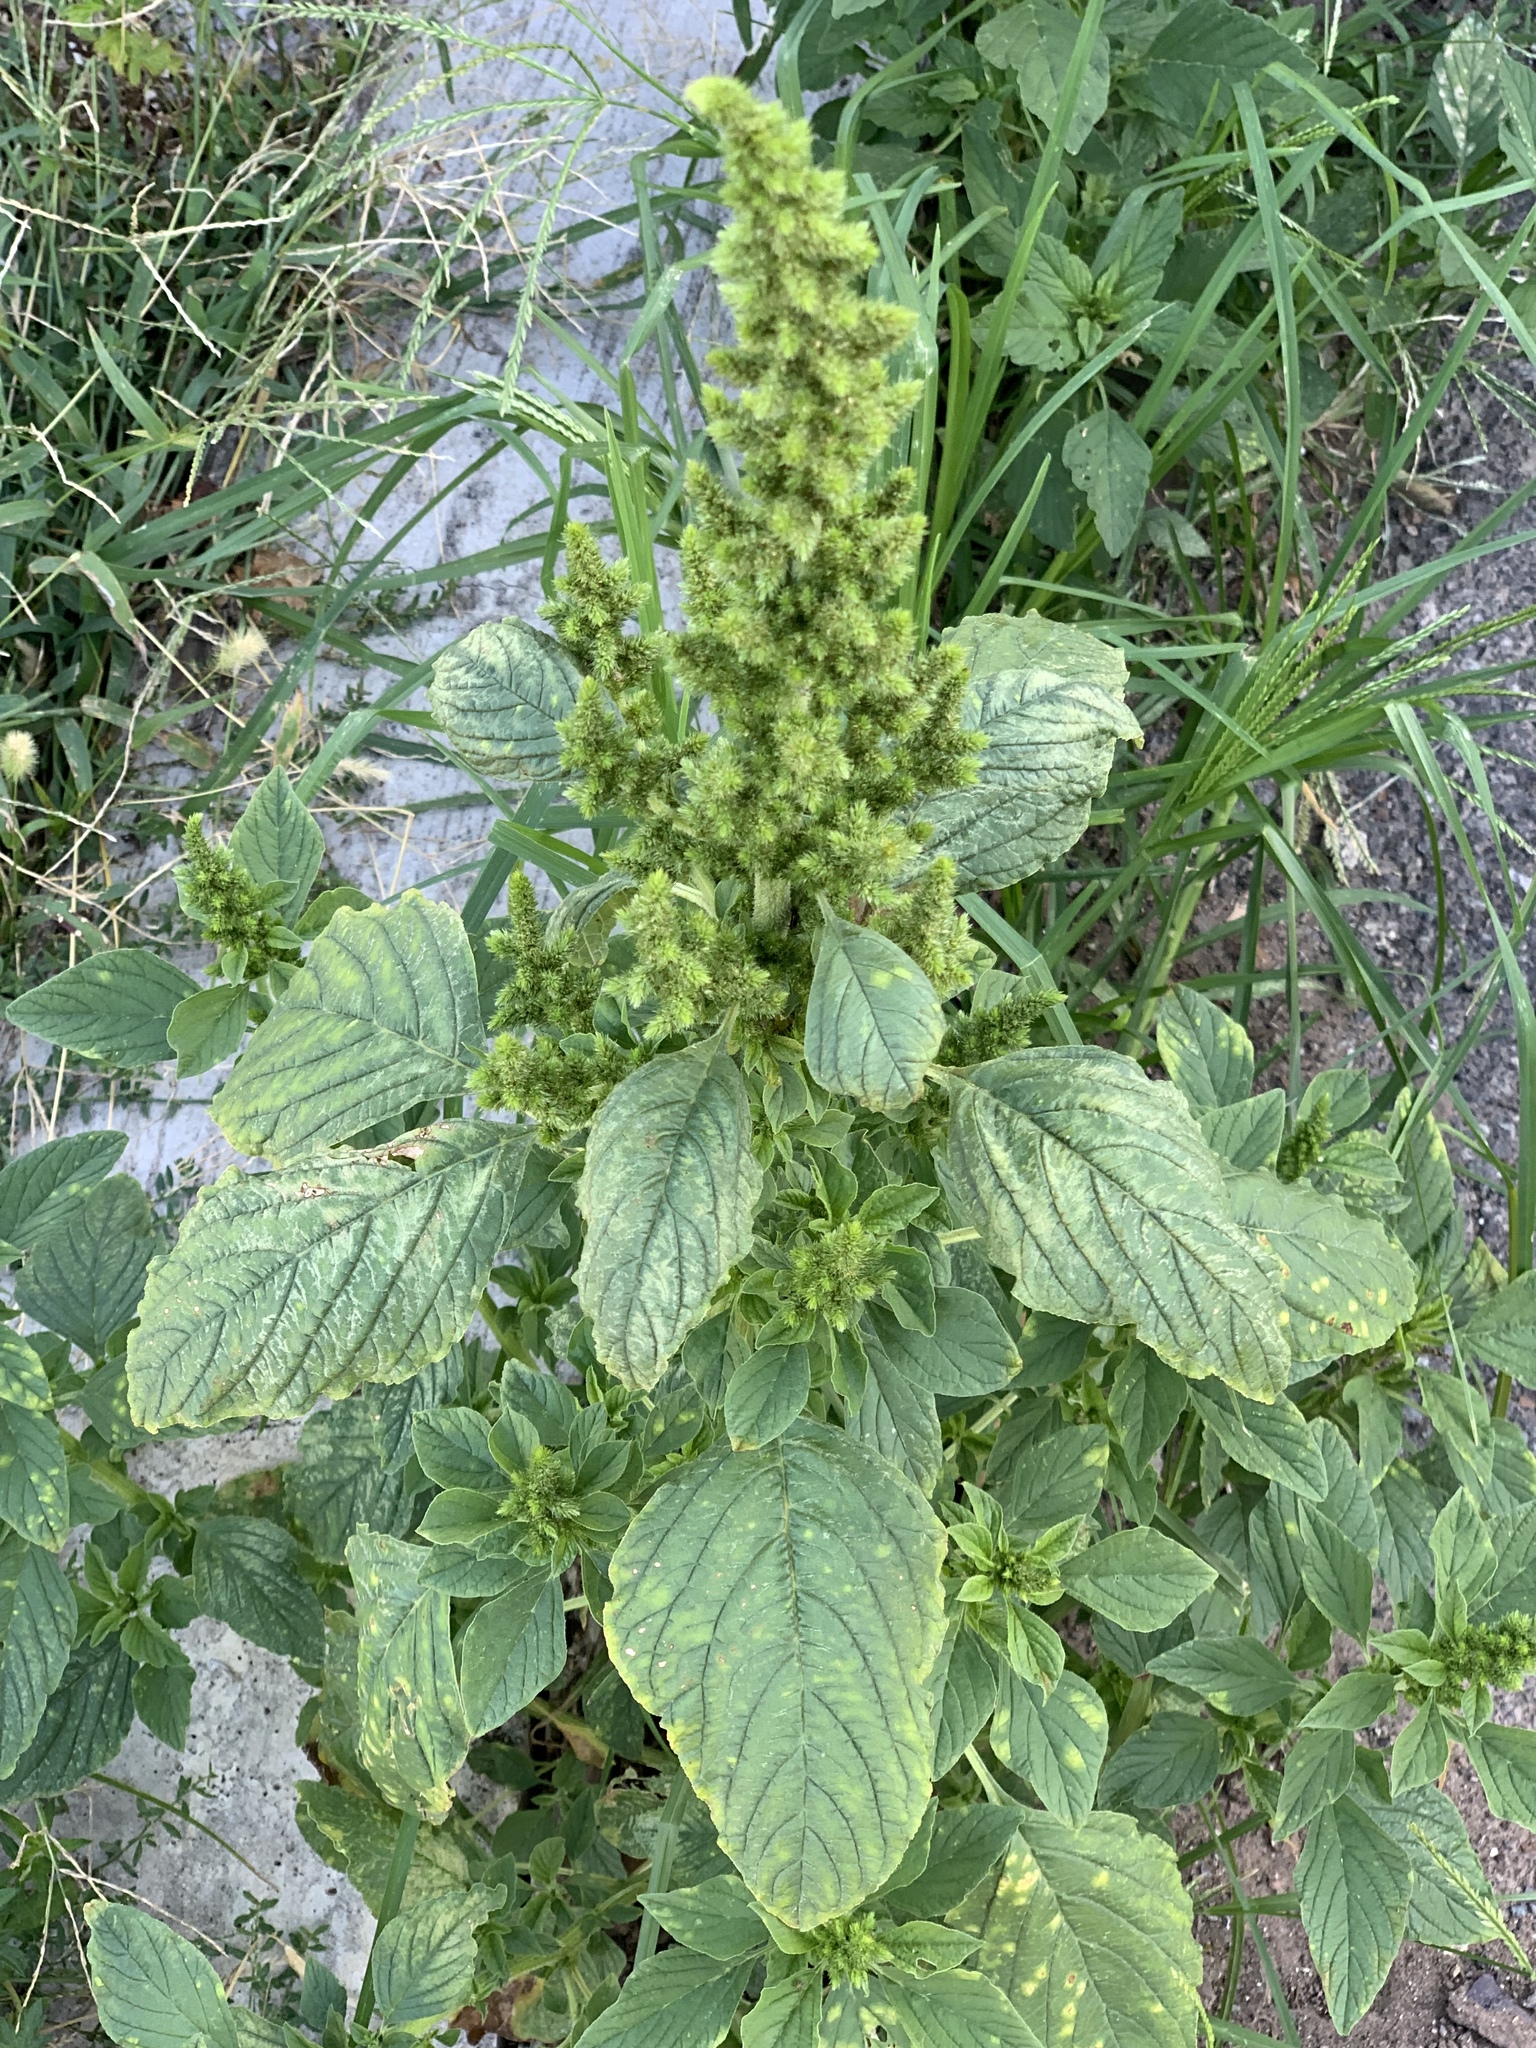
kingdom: Plantae
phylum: Tracheophyta
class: Magnoliopsida
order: Caryophyllales
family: Amaranthaceae
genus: Amaranthus
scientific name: Amaranthus retroflexus
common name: Redroot amaranth
